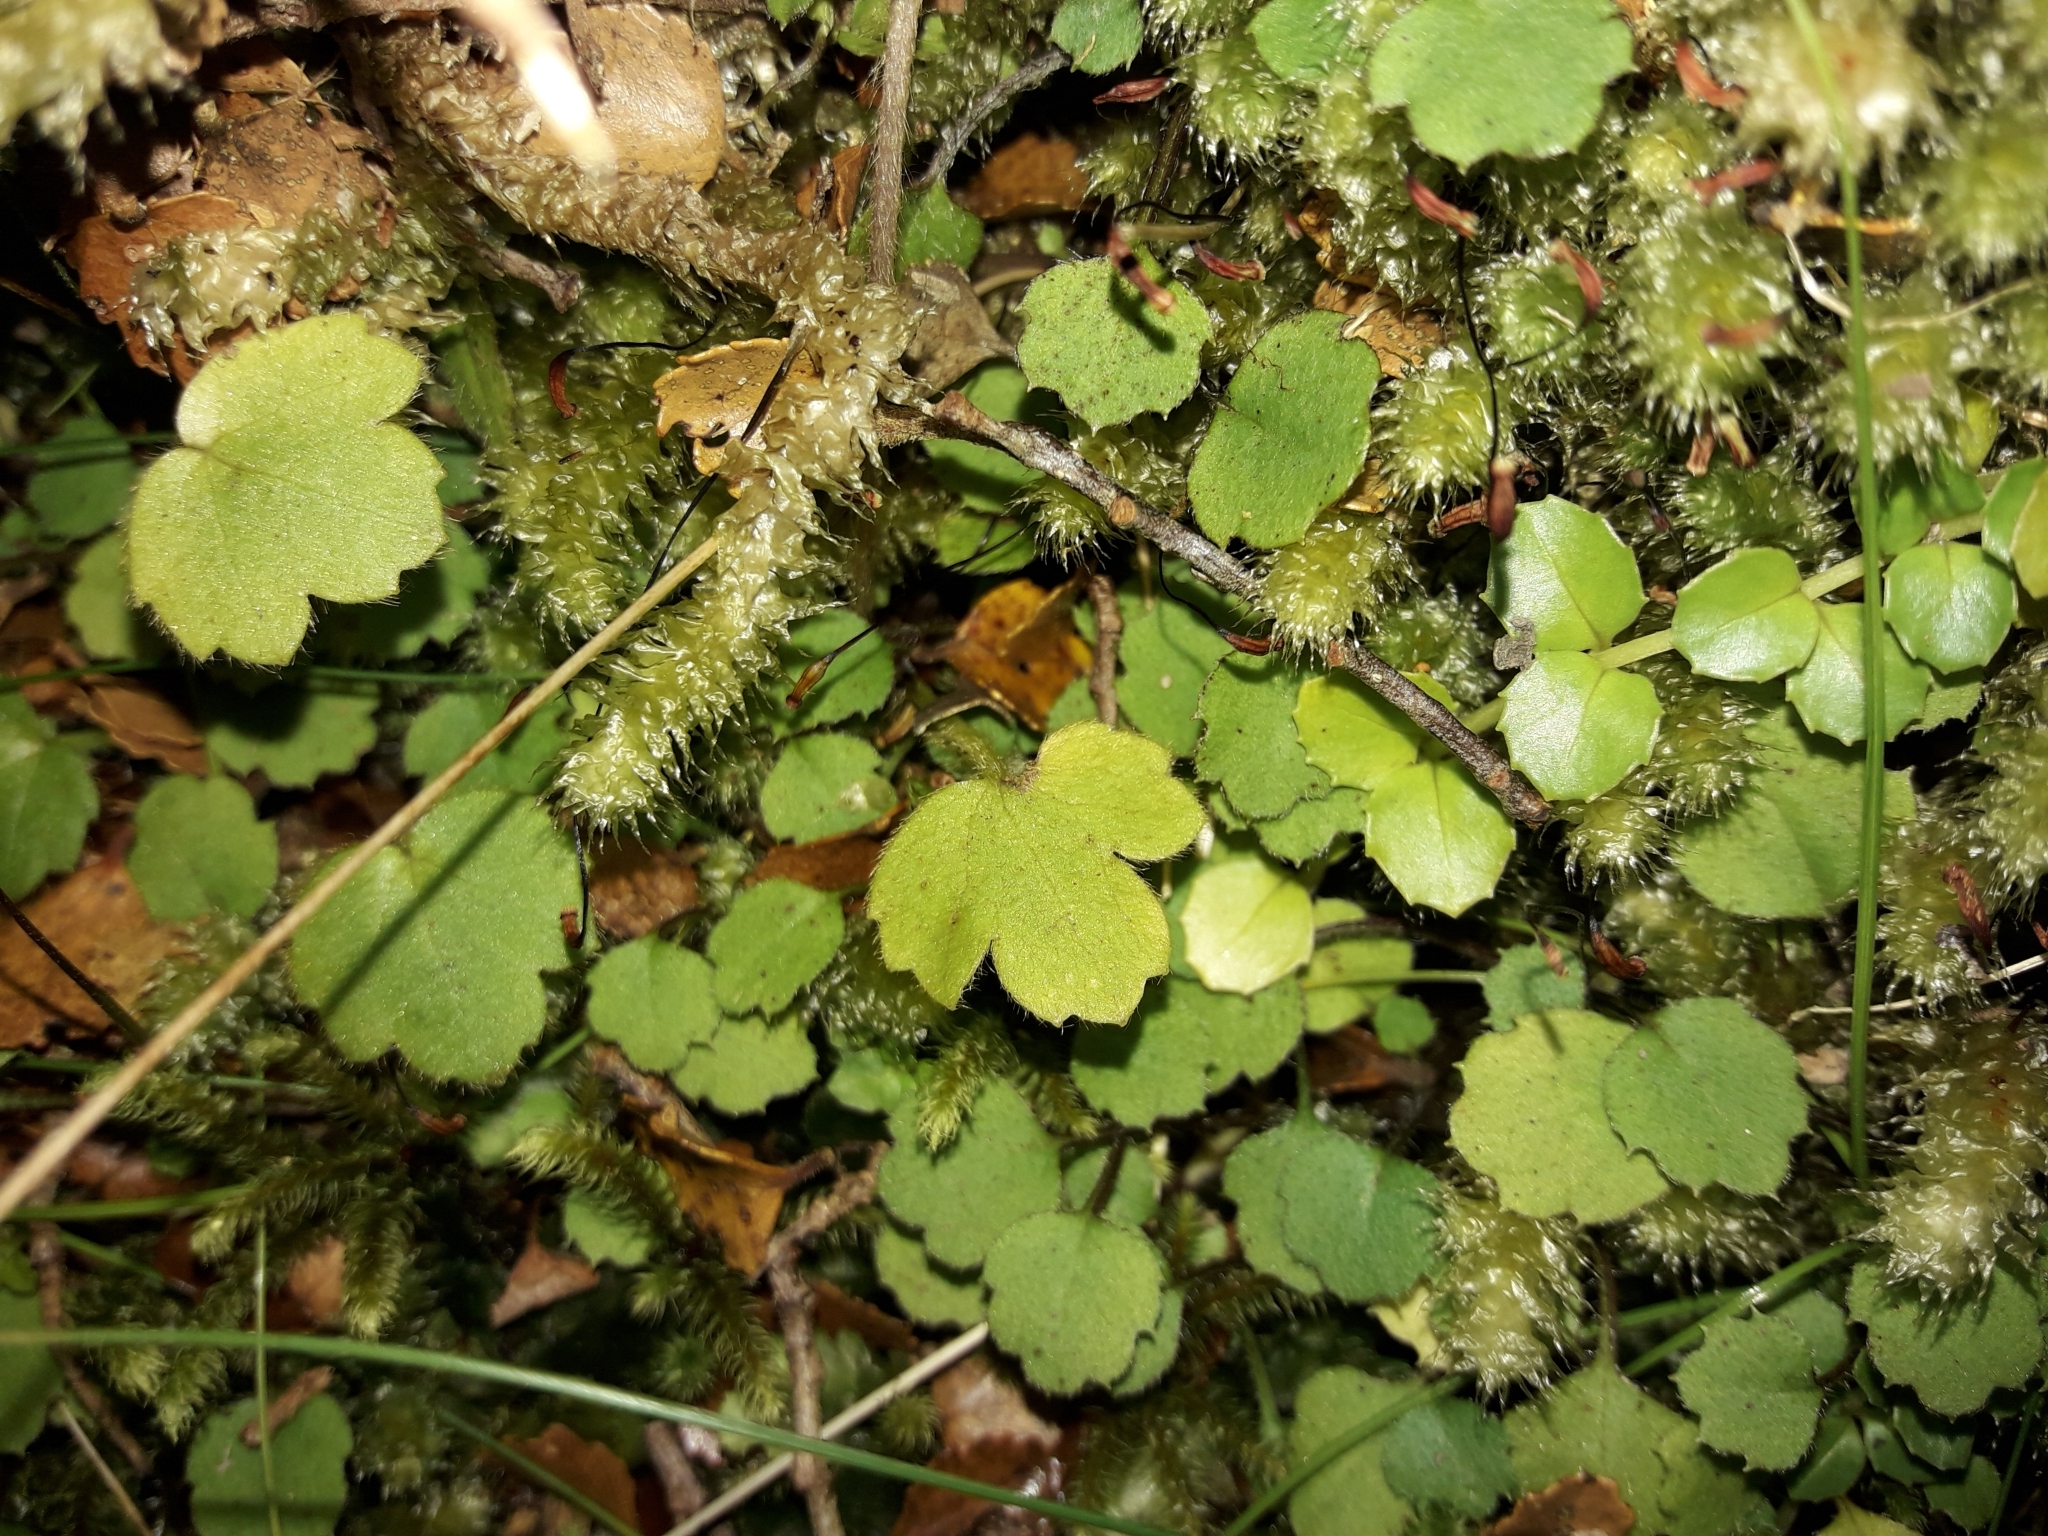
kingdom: Plantae
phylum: Tracheophyta
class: Magnoliopsida
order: Ranunculales
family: Ranunculaceae
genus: Ranunculus
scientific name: Ranunculus reflexus
